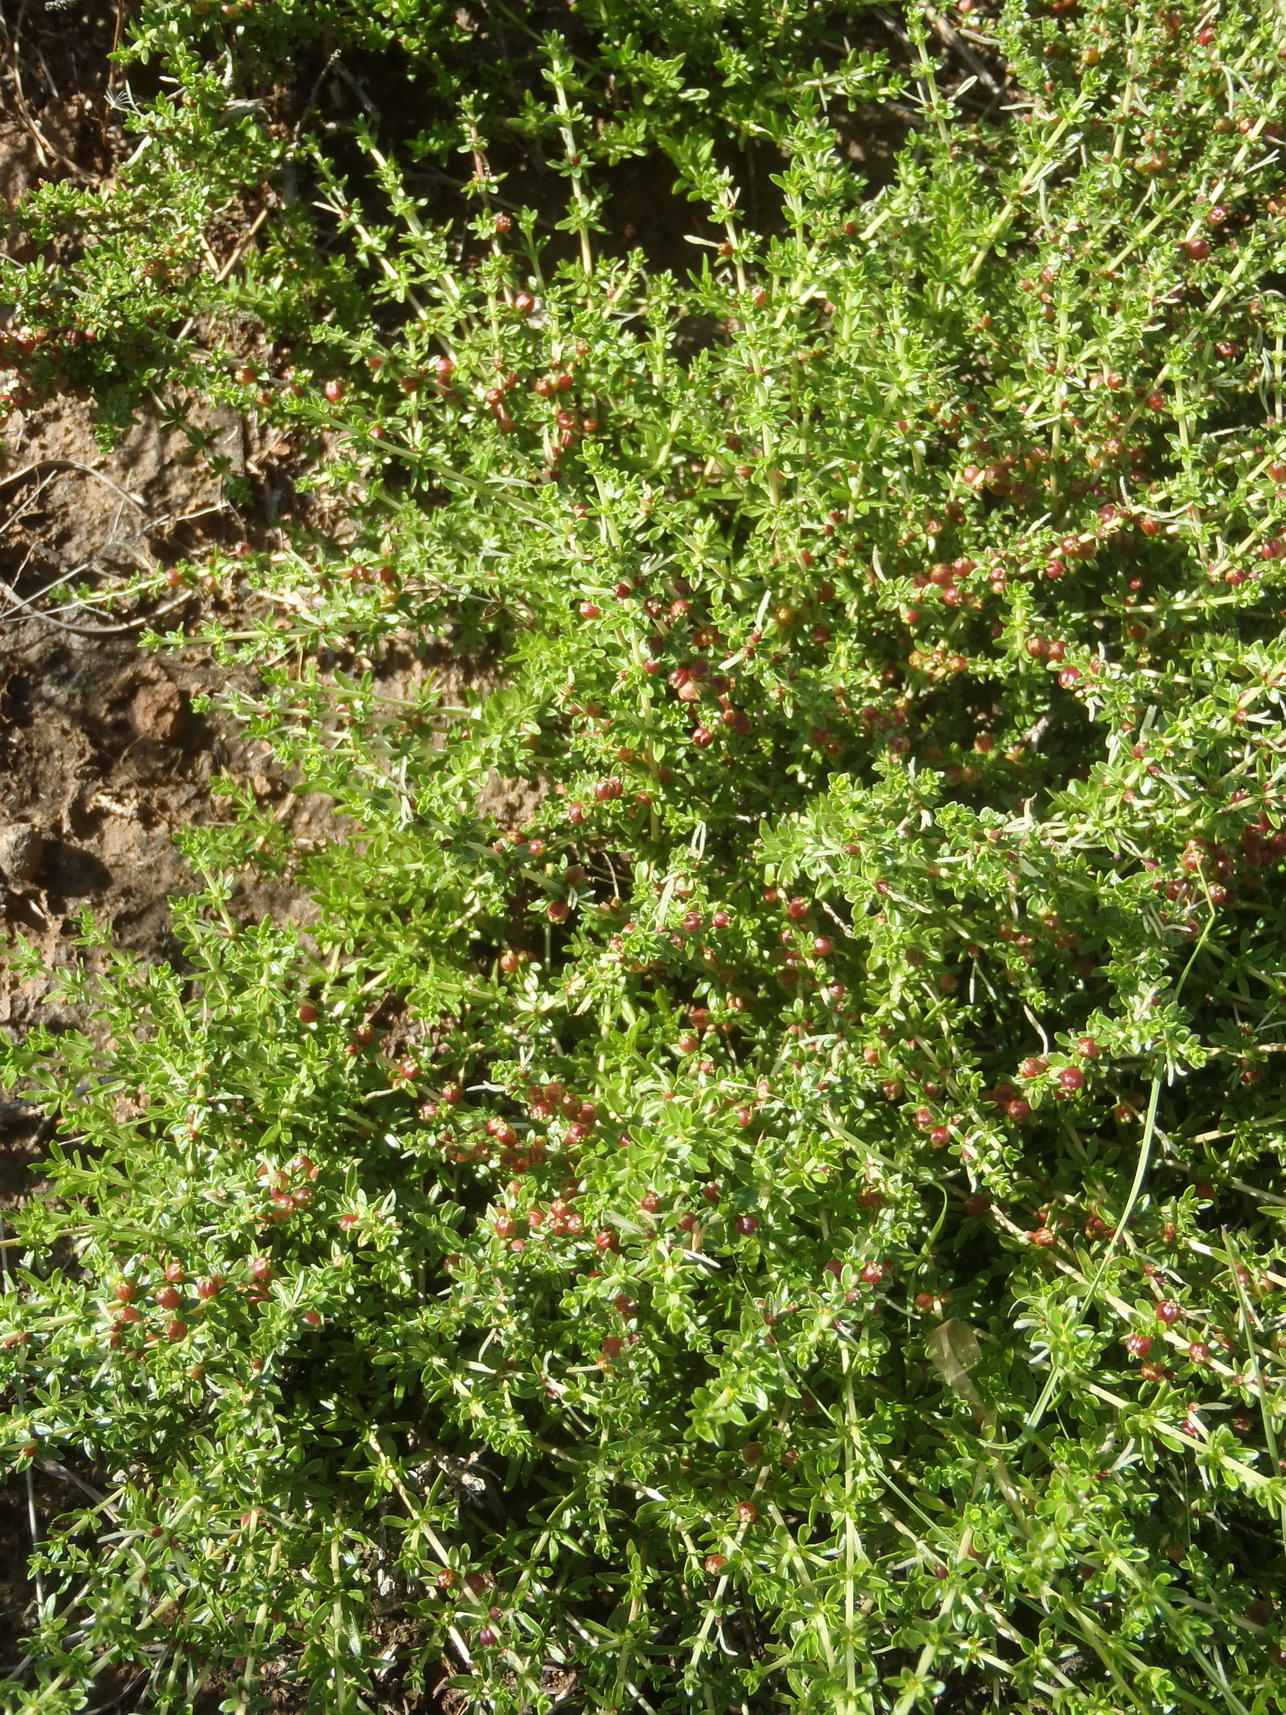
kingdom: Plantae
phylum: Tracheophyta
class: Magnoliopsida
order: Gentianales
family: Rubiaceae
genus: Nenax
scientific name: Nenax microphylla
